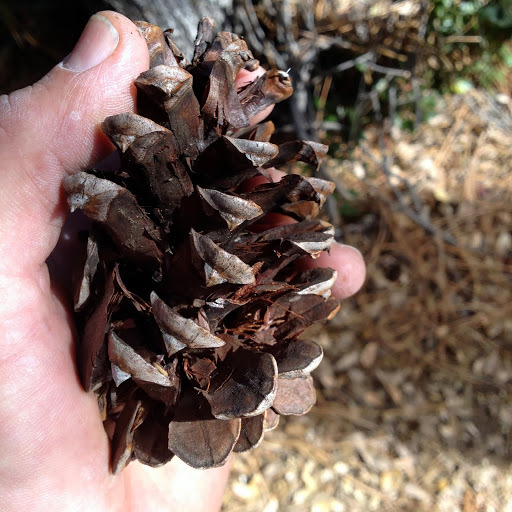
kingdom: Plantae
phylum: Tracheophyta
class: Pinopsida
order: Pinales
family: Pinaceae
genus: Pinus
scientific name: Pinus ponderosa
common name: Western yellow-pine
